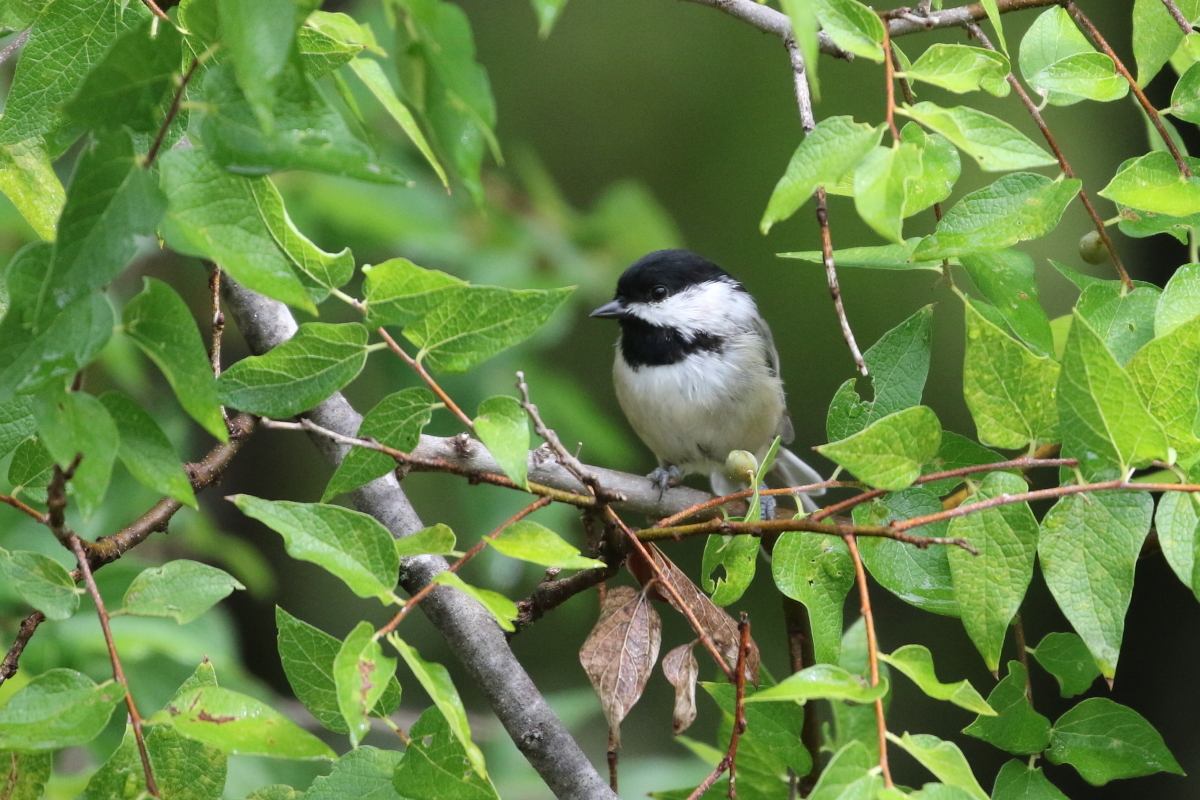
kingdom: Animalia
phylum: Chordata
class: Aves
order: Passeriformes
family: Paridae
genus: Poecile
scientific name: Poecile carolinensis
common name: Carolina chickadee
